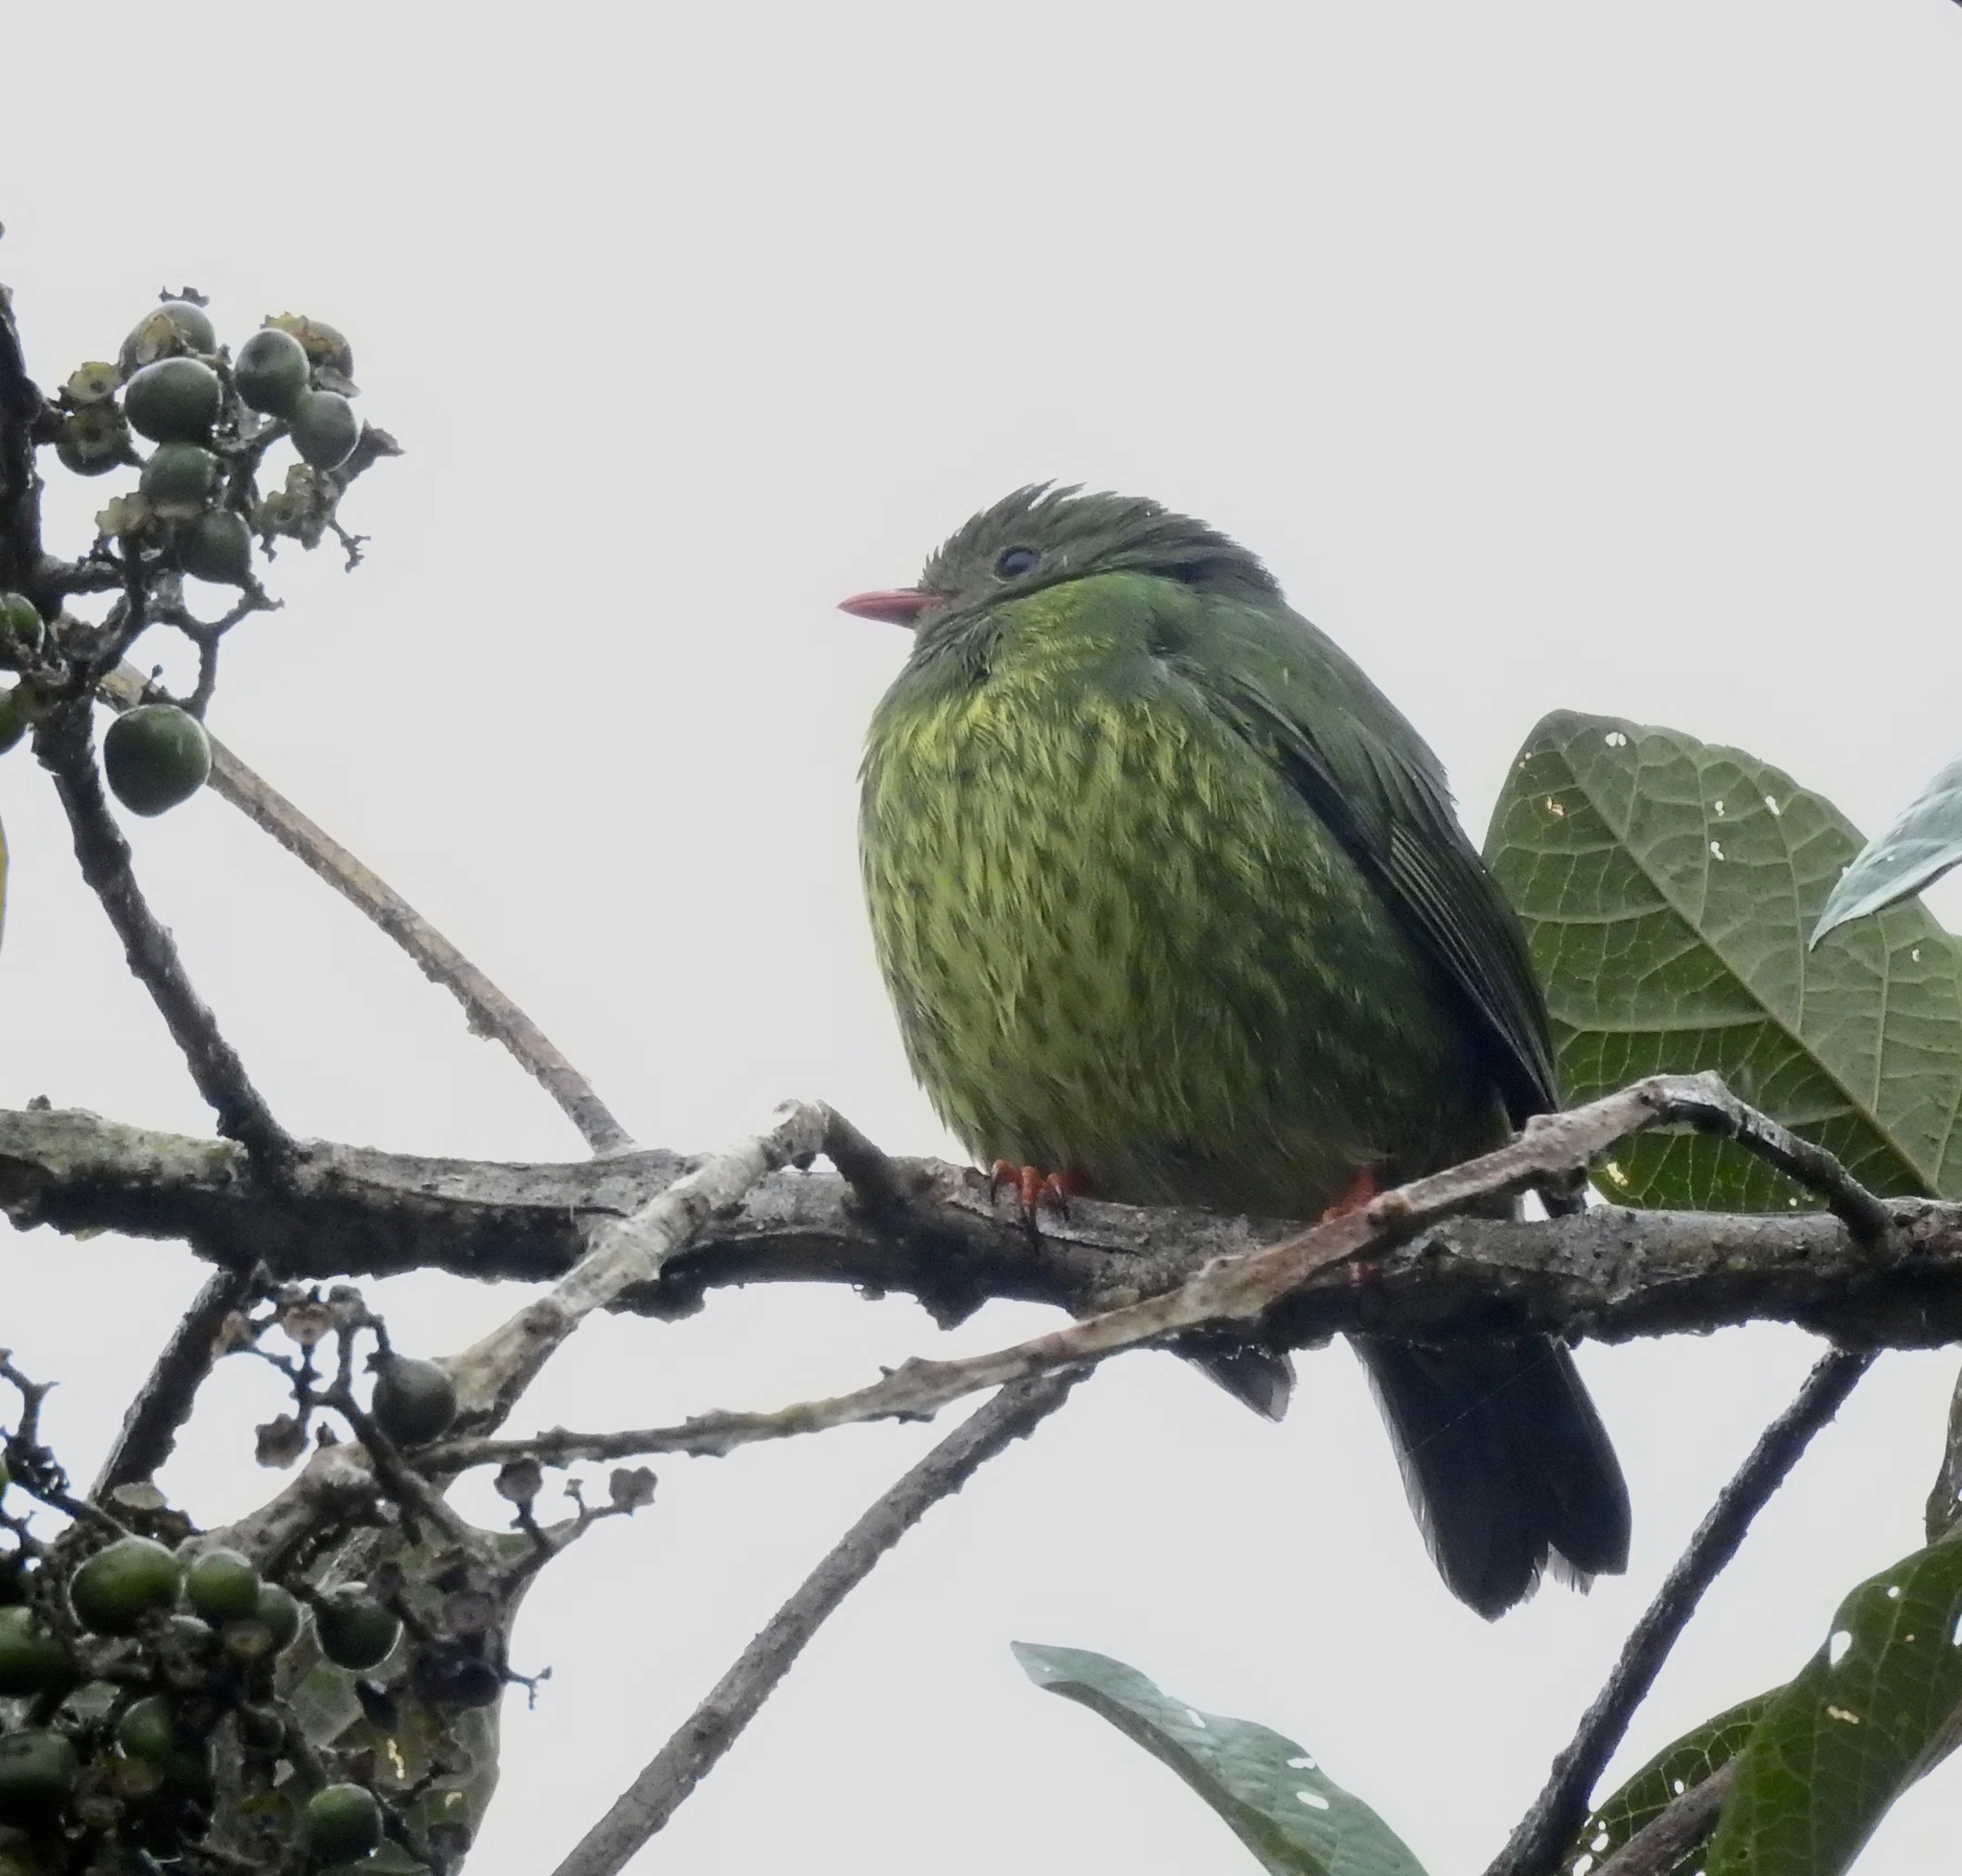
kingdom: Animalia
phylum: Chordata
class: Aves
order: Passeriformes
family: Cotingidae
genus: Pipreola
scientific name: Pipreola riefferii
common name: Green-and-black fruiteater
